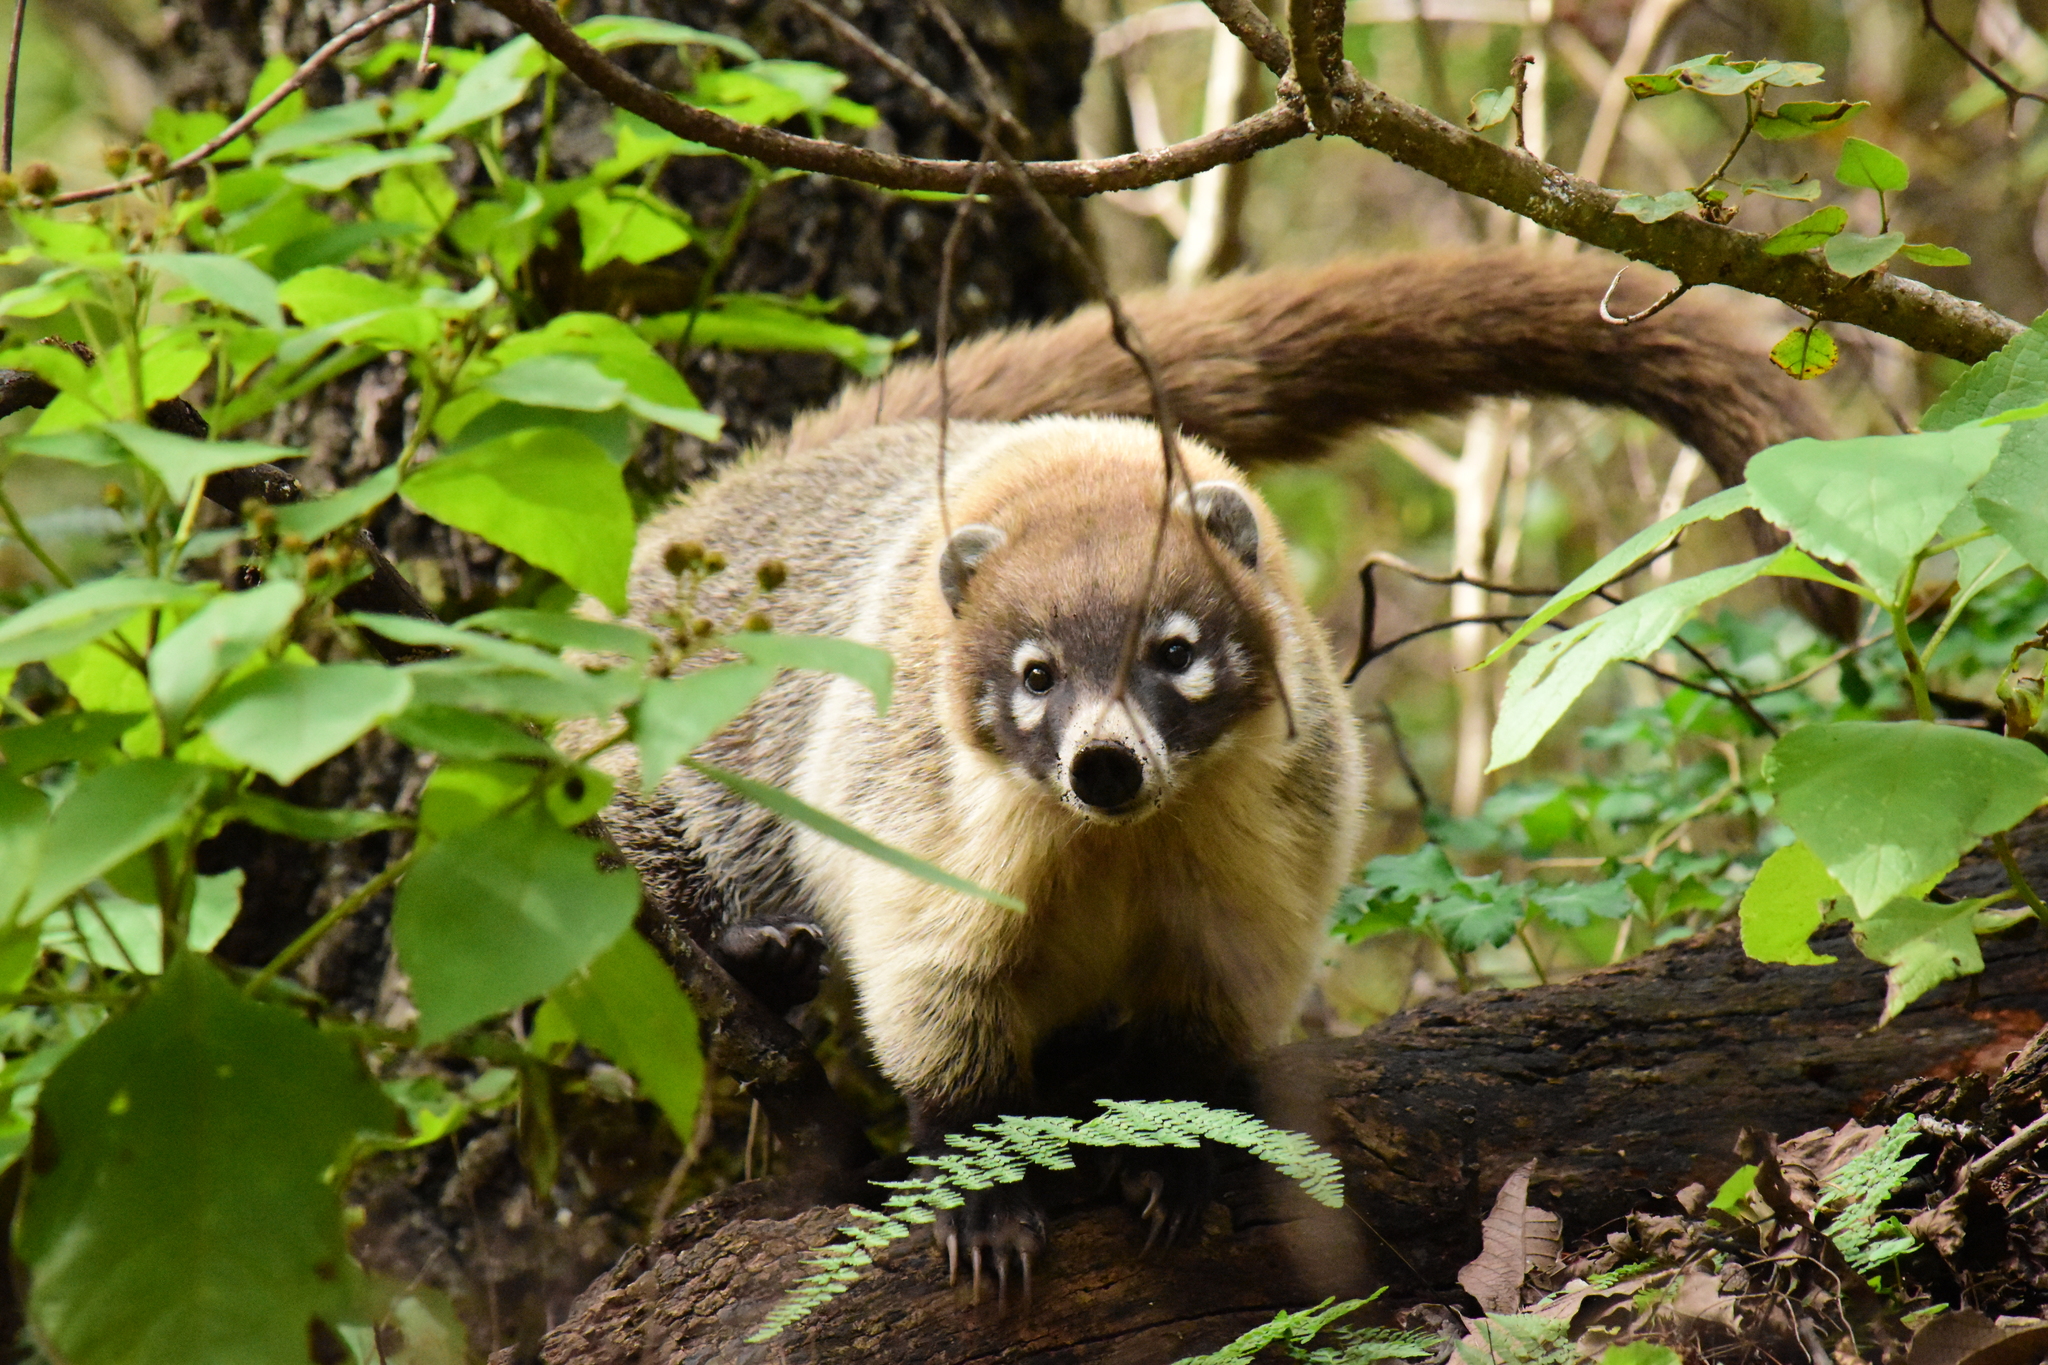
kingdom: Animalia
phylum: Chordata
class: Mammalia
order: Carnivora
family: Procyonidae
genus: Nasua
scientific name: Nasua narica
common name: White-nosed coati
